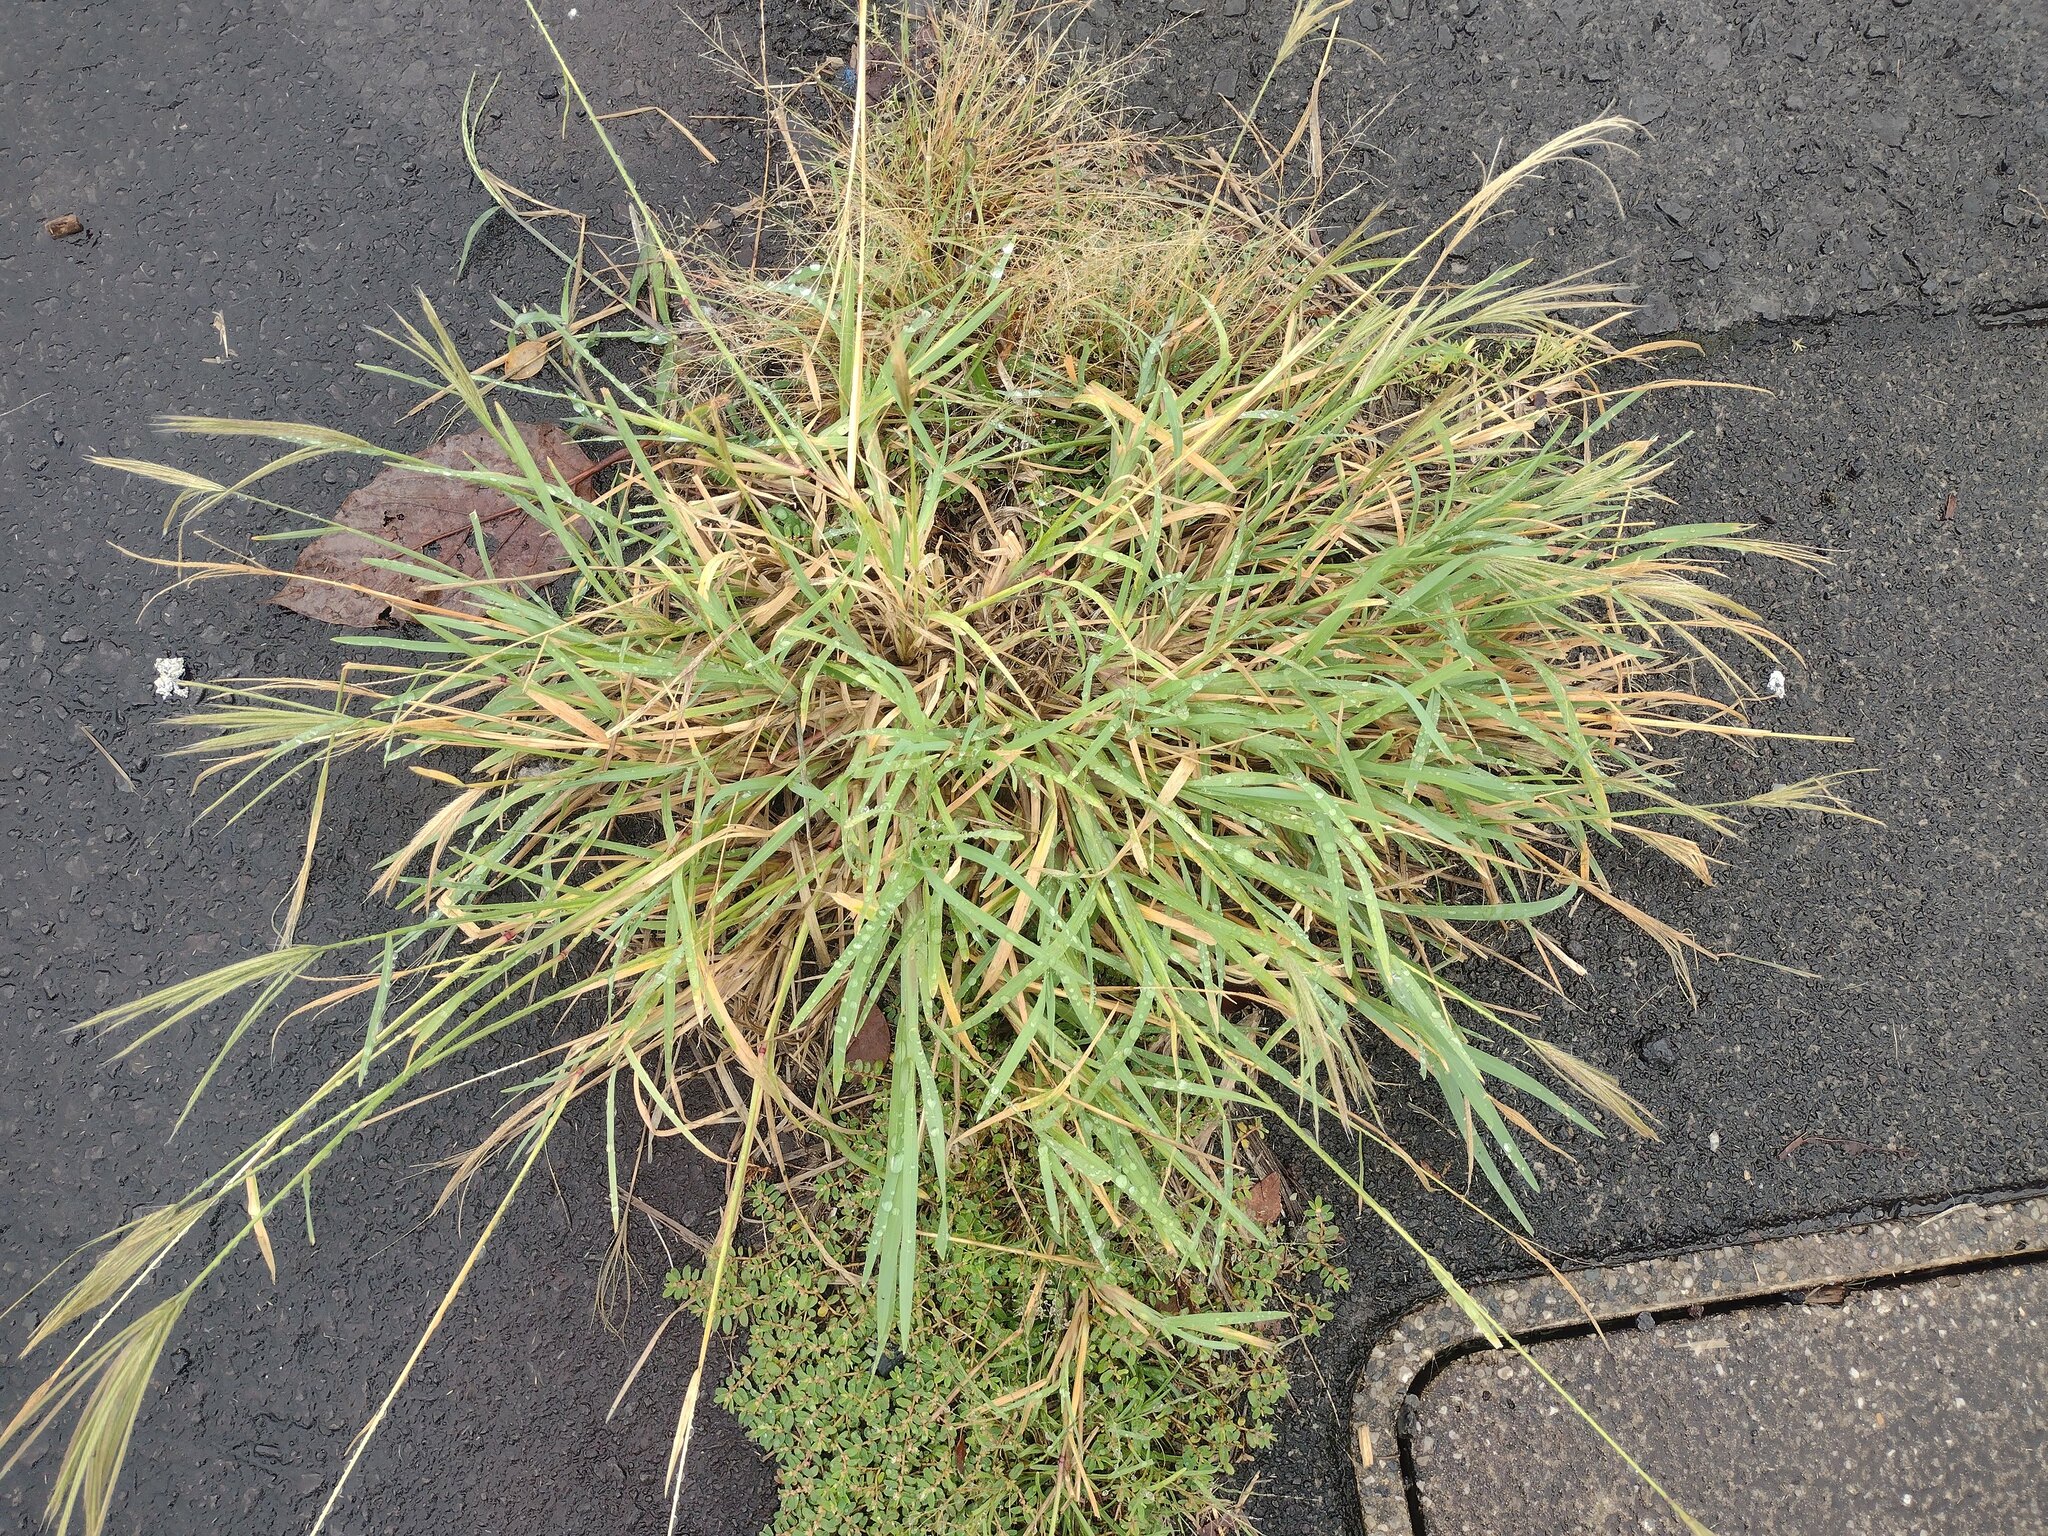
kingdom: Plantae
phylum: Tracheophyta
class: Liliopsida
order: Poales
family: Poaceae
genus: Chloris
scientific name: Chloris radiata
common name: Radiate fingergrass
